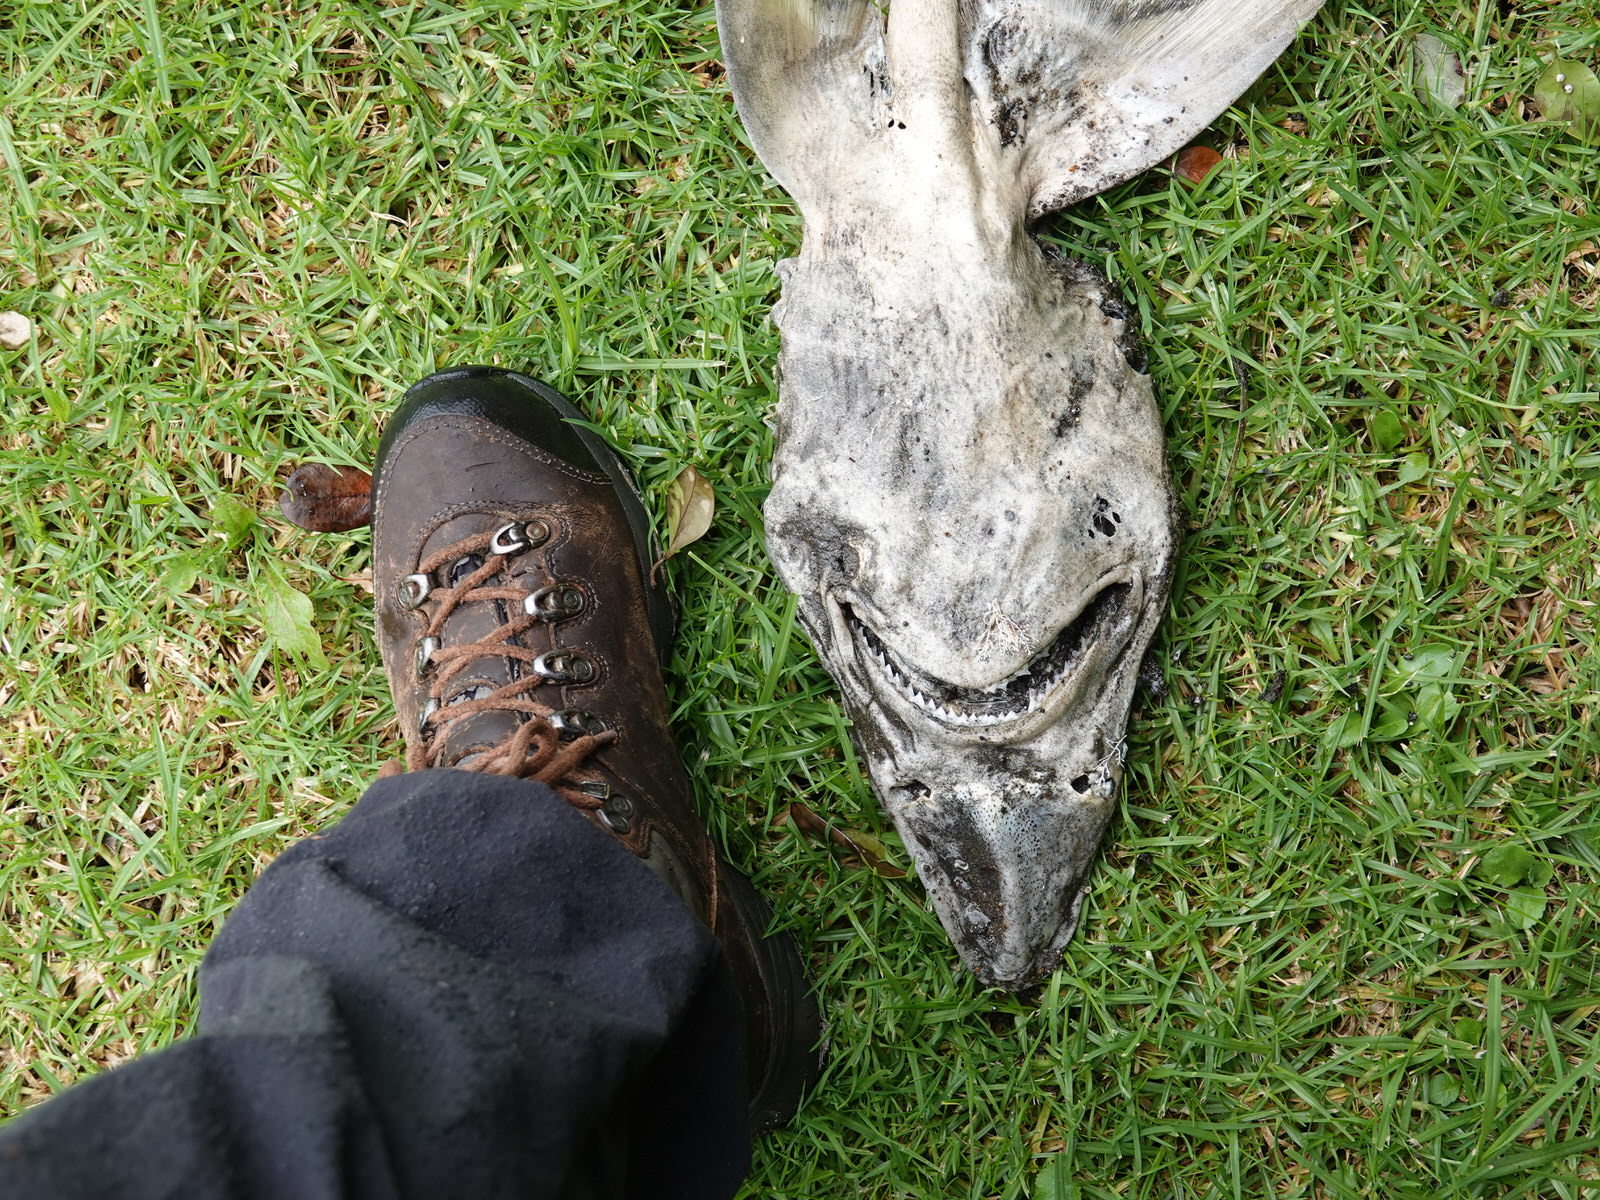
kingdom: Animalia
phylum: Chordata
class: Elasmobranchii
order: Carcharhiniformes
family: Triakidae
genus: Galeorhinus
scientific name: Galeorhinus galeus
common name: Tope
